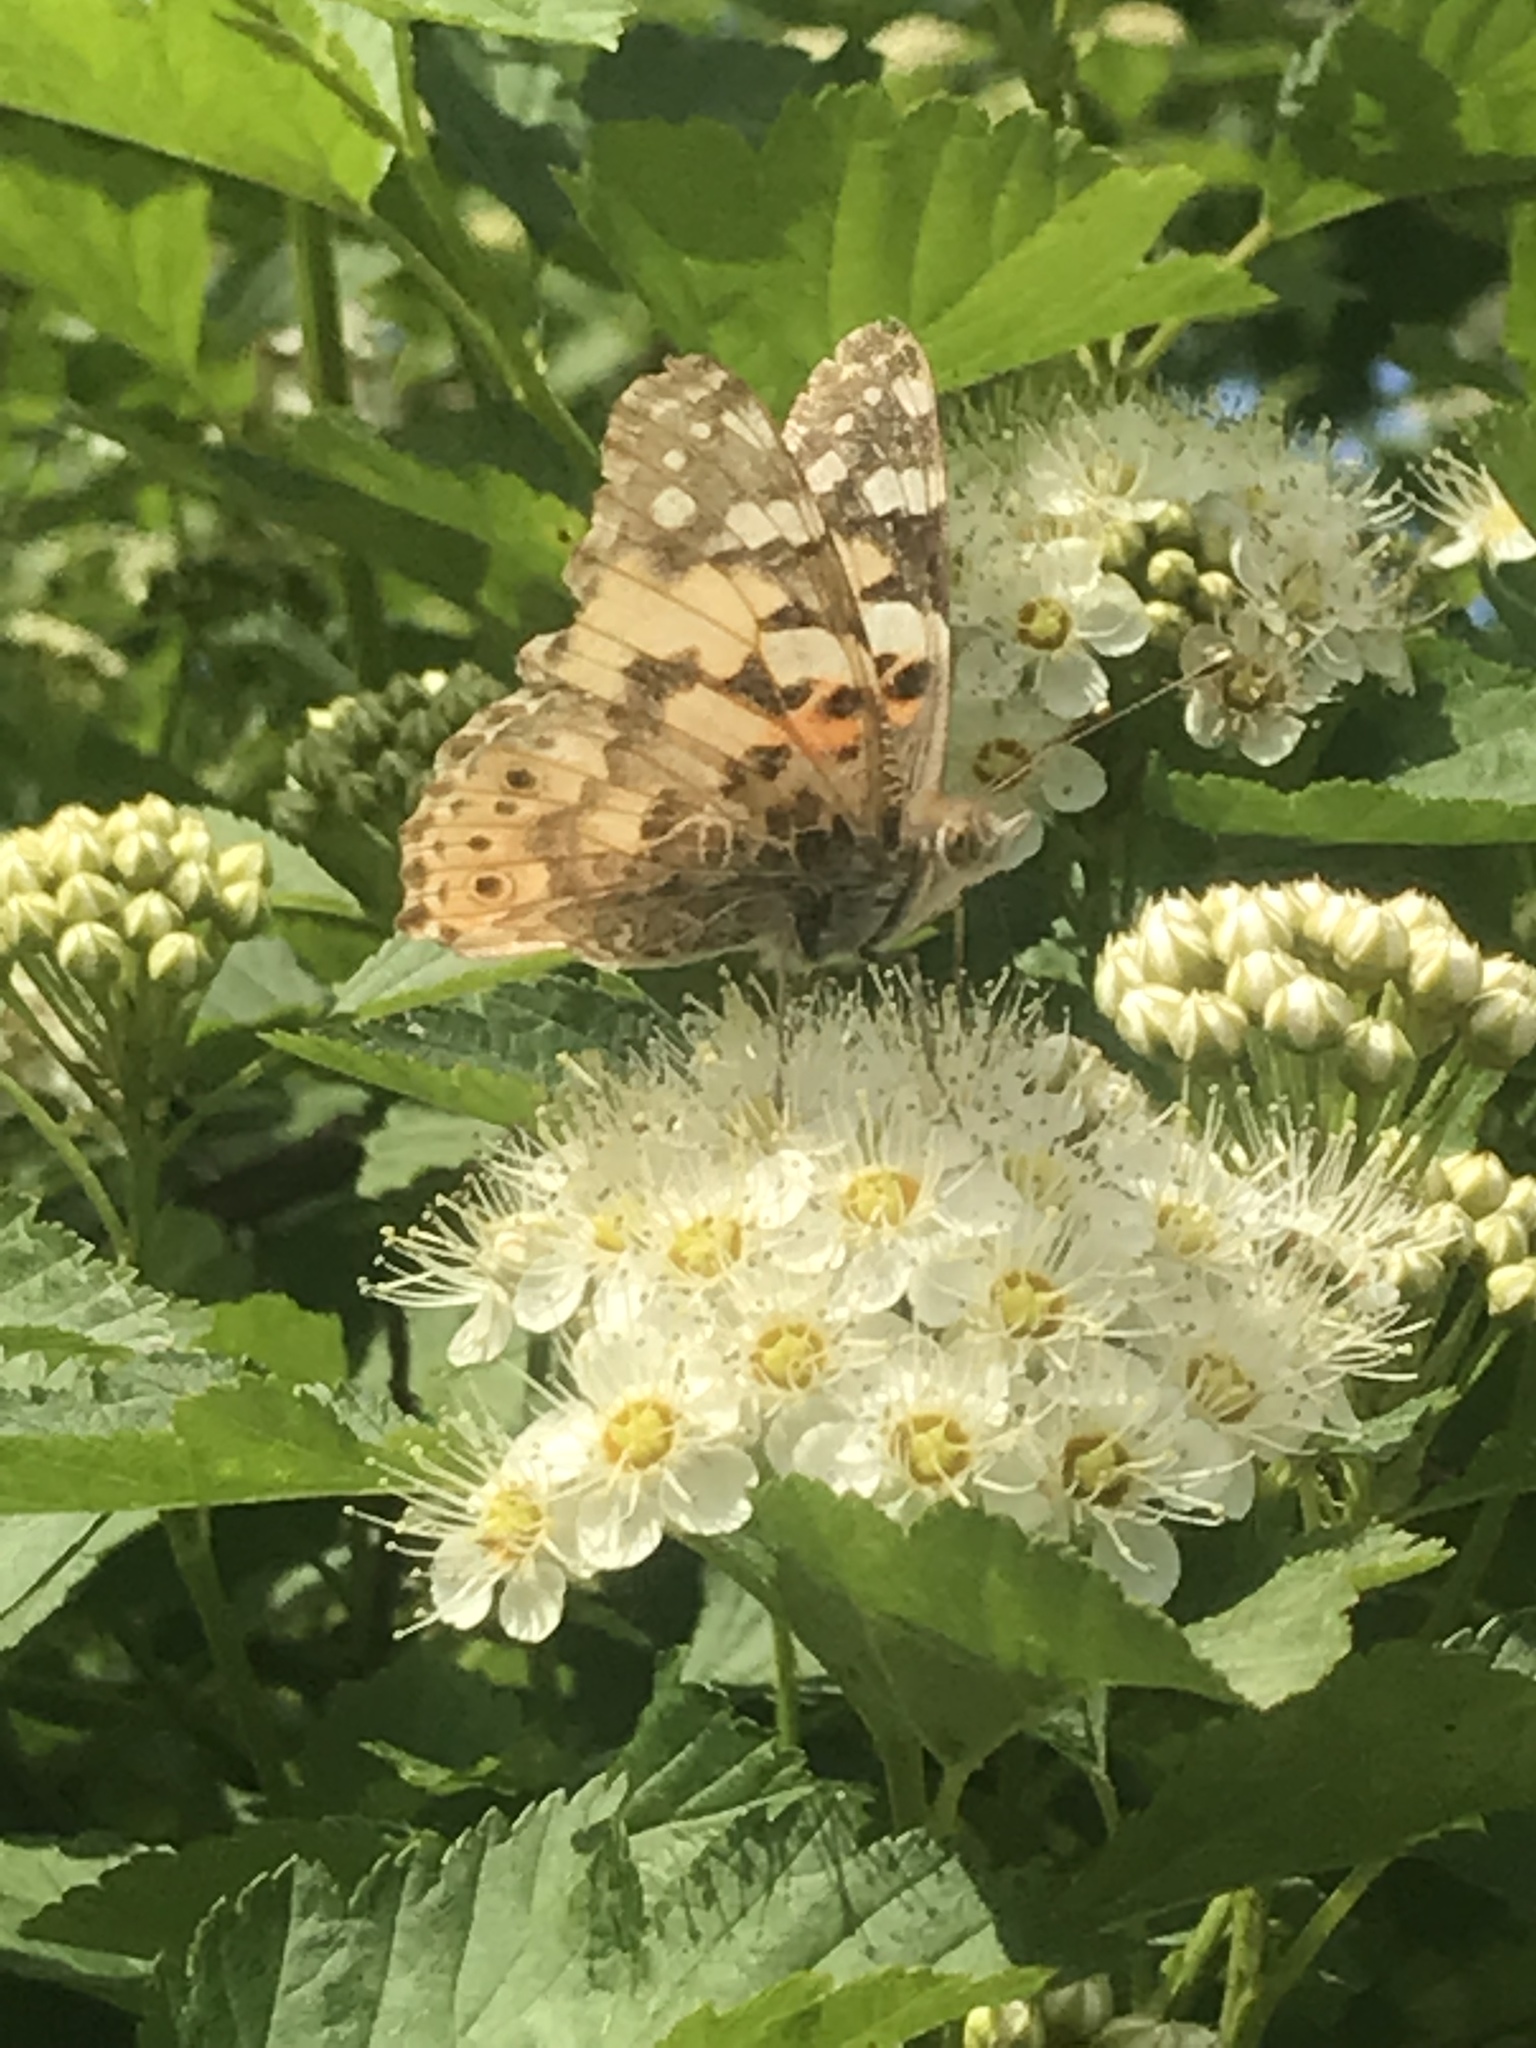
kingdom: Animalia
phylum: Arthropoda
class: Insecta
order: Lepidoptera
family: Nymphalidae
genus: Vanessa
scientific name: Vanessa cardui
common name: Painted lady
